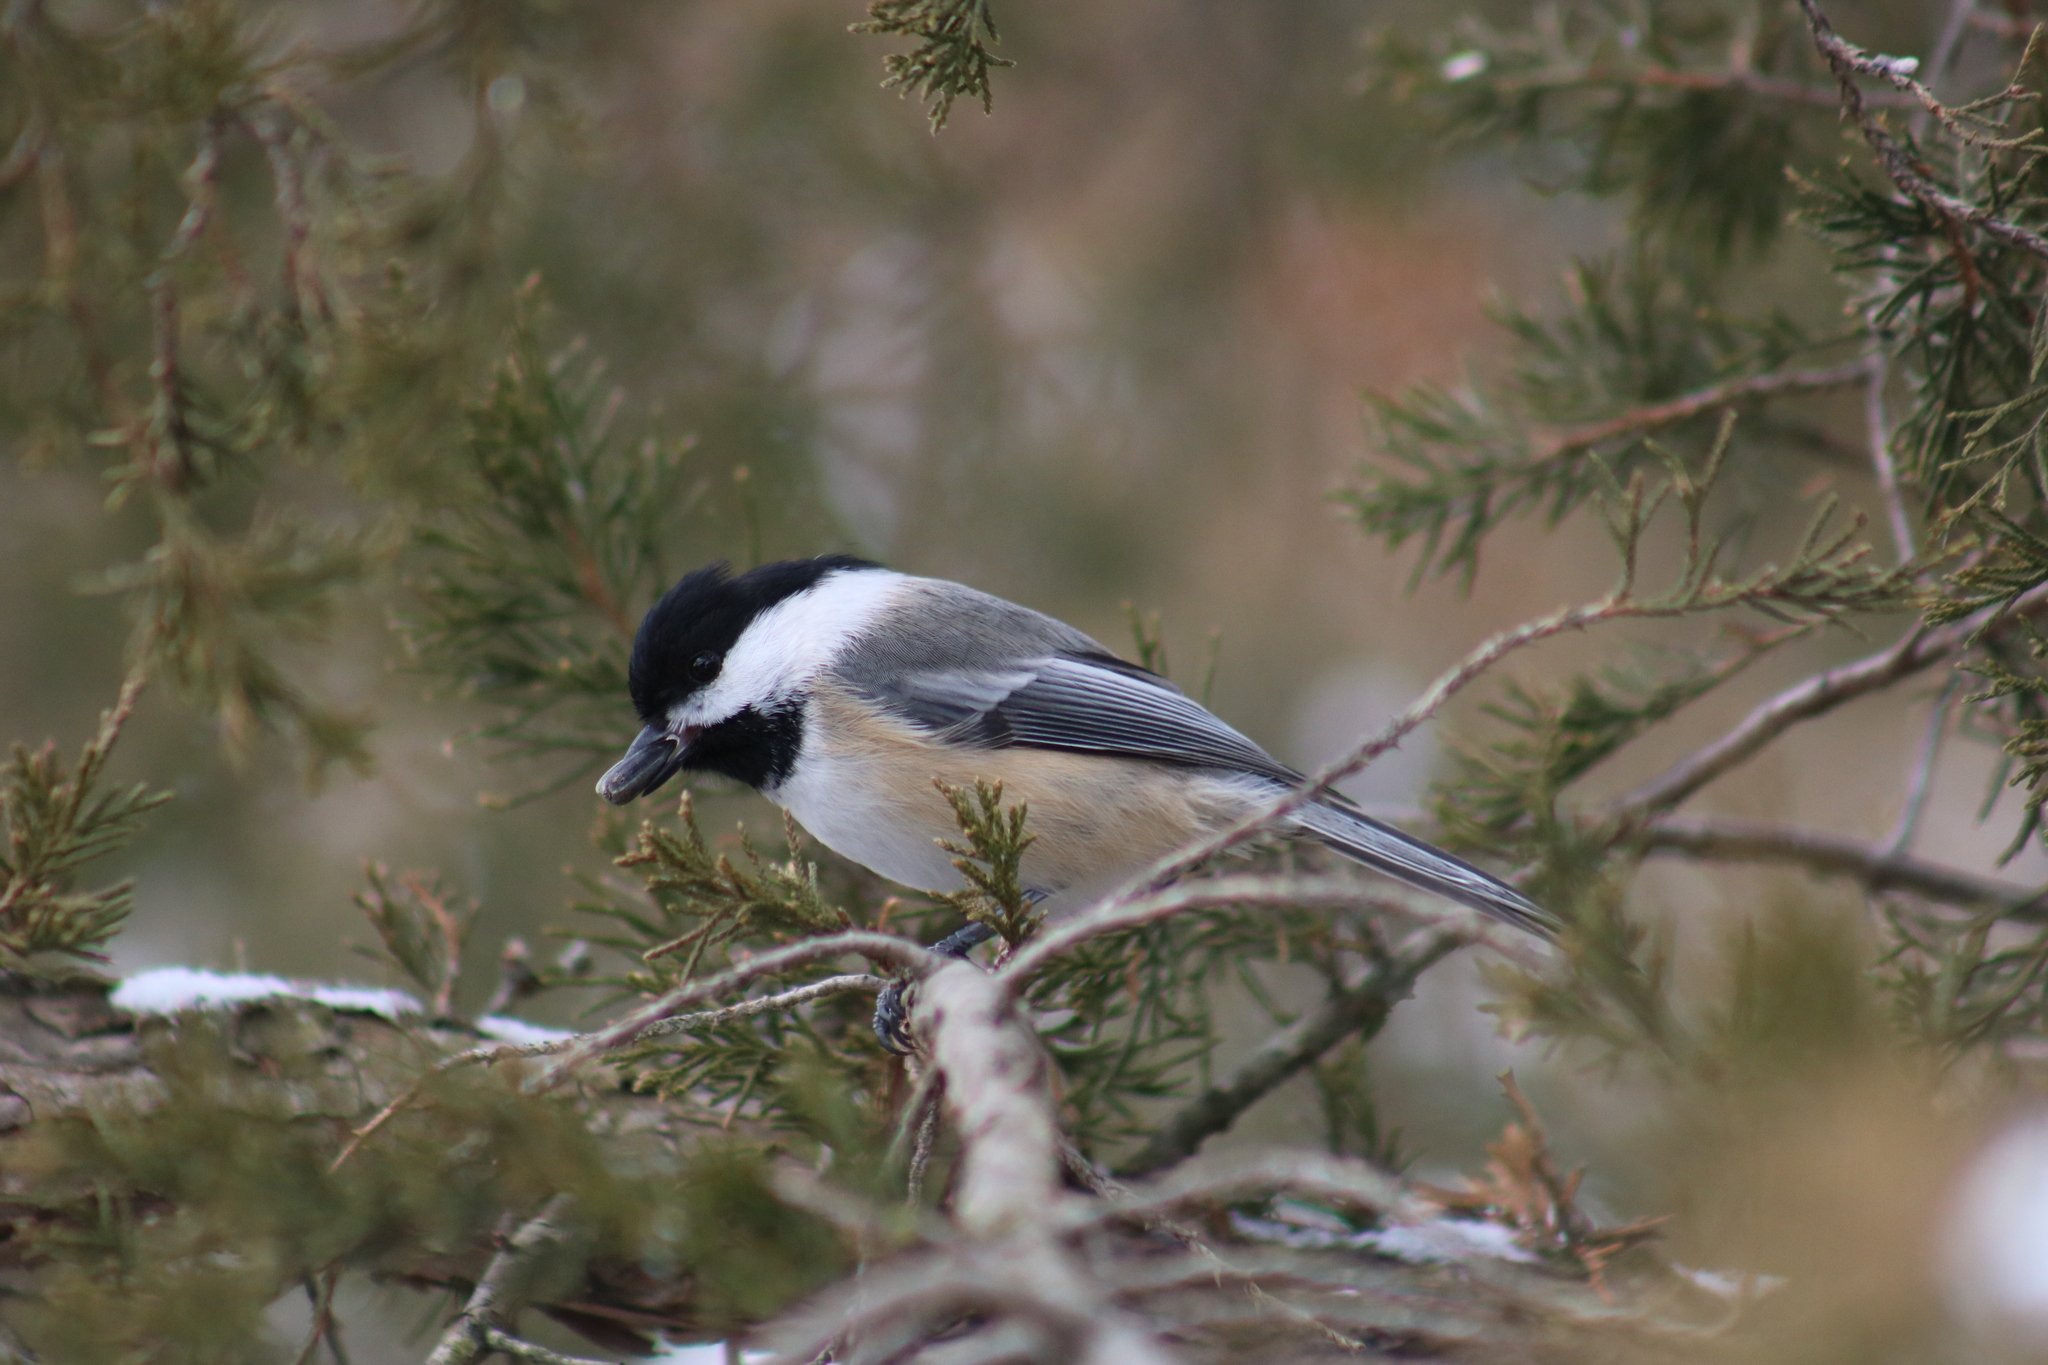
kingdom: Animalia
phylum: Chordata
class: Aves
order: Passeriformes
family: Paridae
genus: Poecile
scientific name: Poecile atricapillus
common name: Black-capped chickadee
